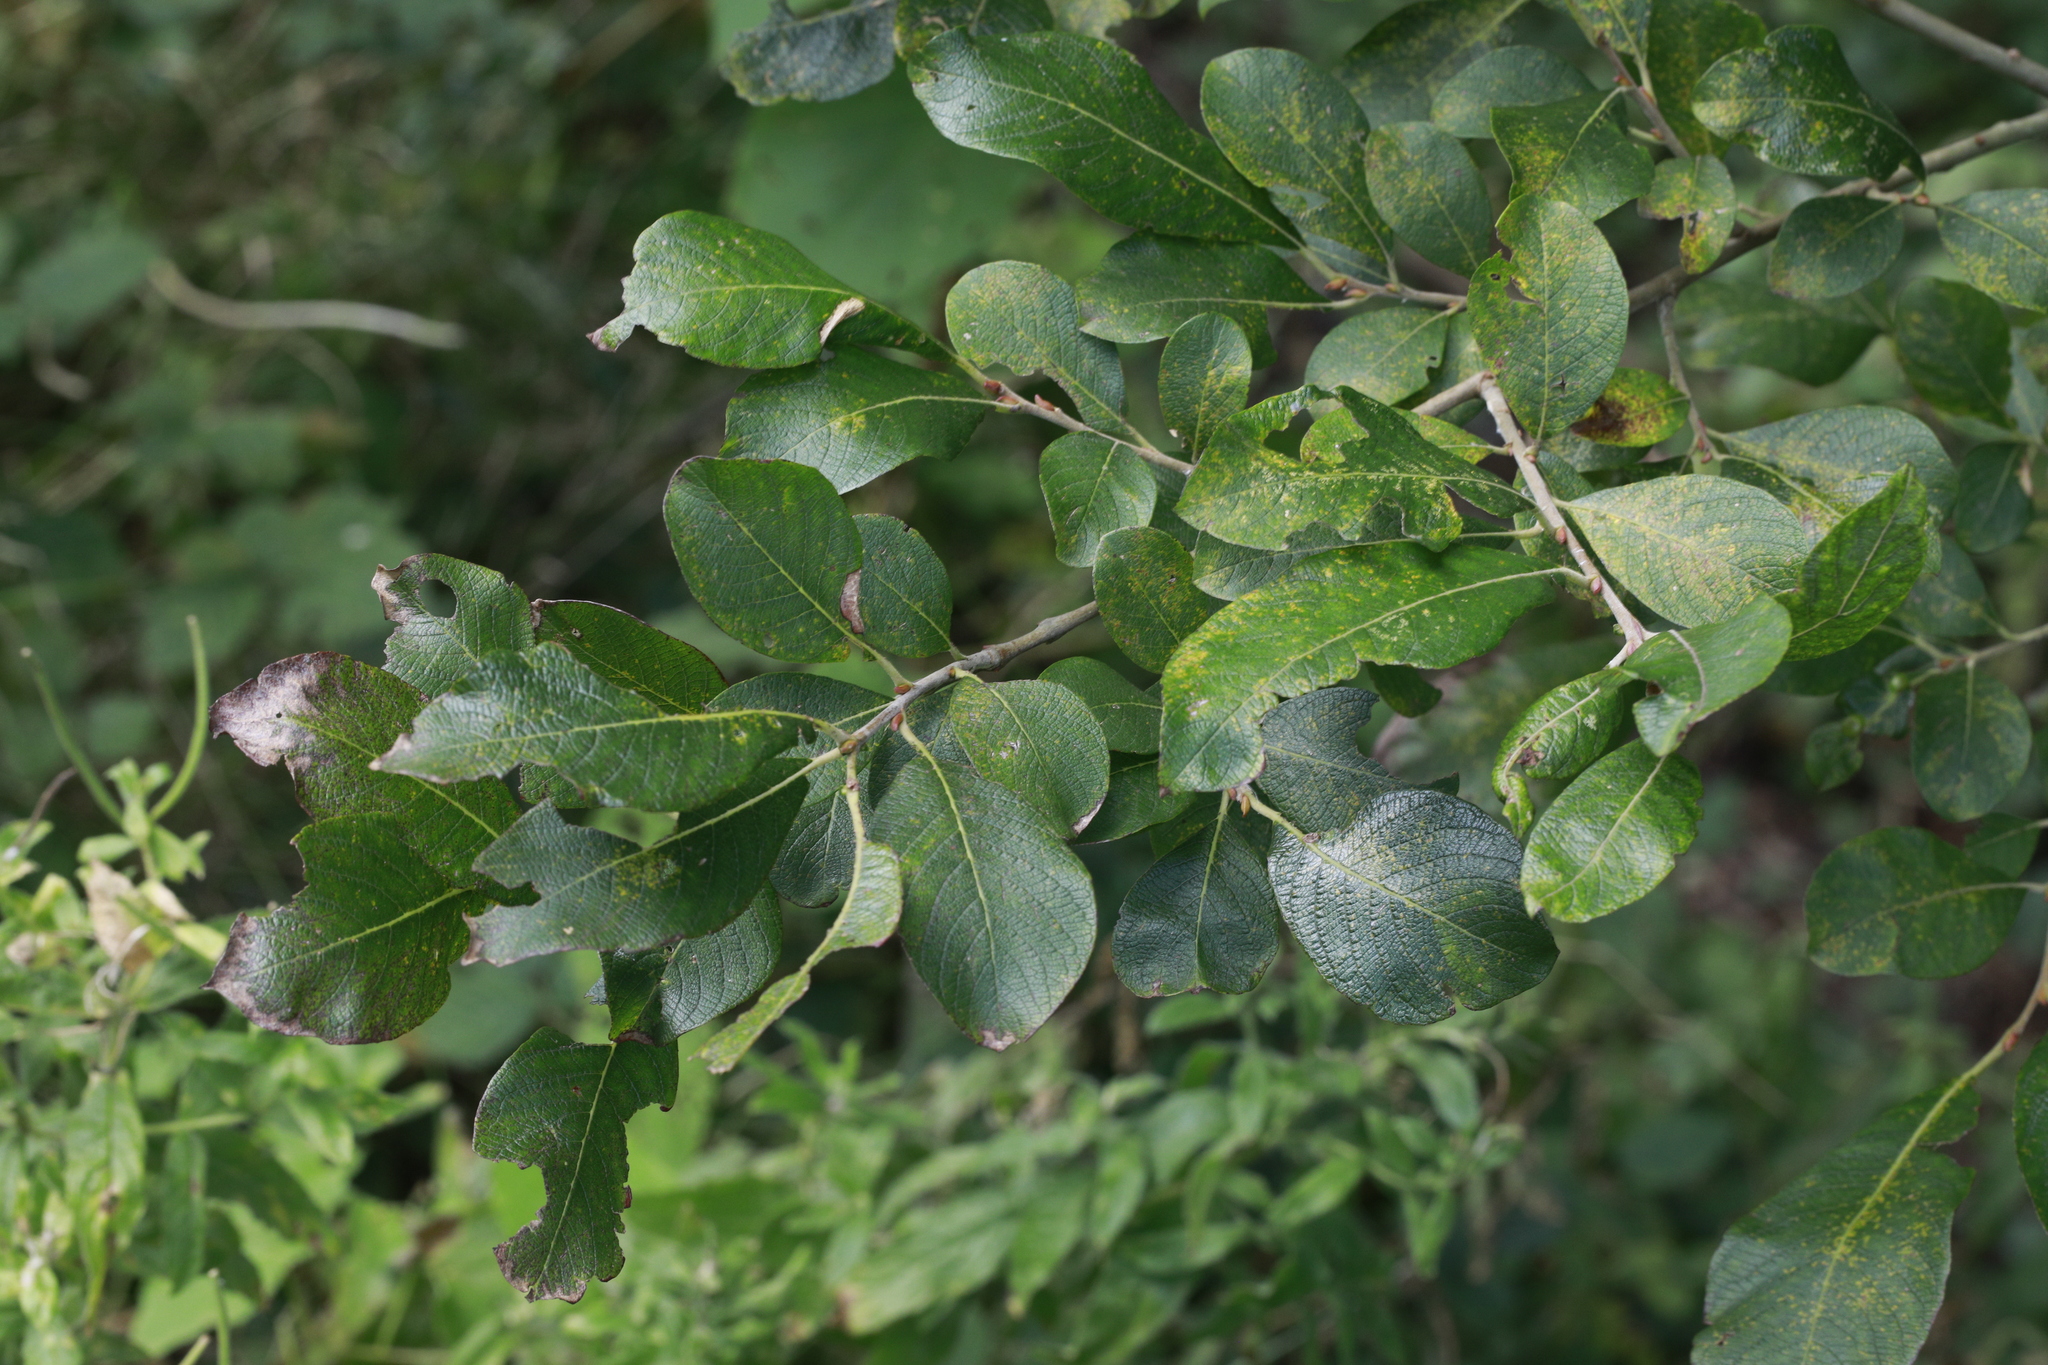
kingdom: Plantae
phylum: Tracheophyta
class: Magnoliopsida
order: Malpighiales
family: Salicaceae
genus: Salix
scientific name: Salix caprea
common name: Goat willow
